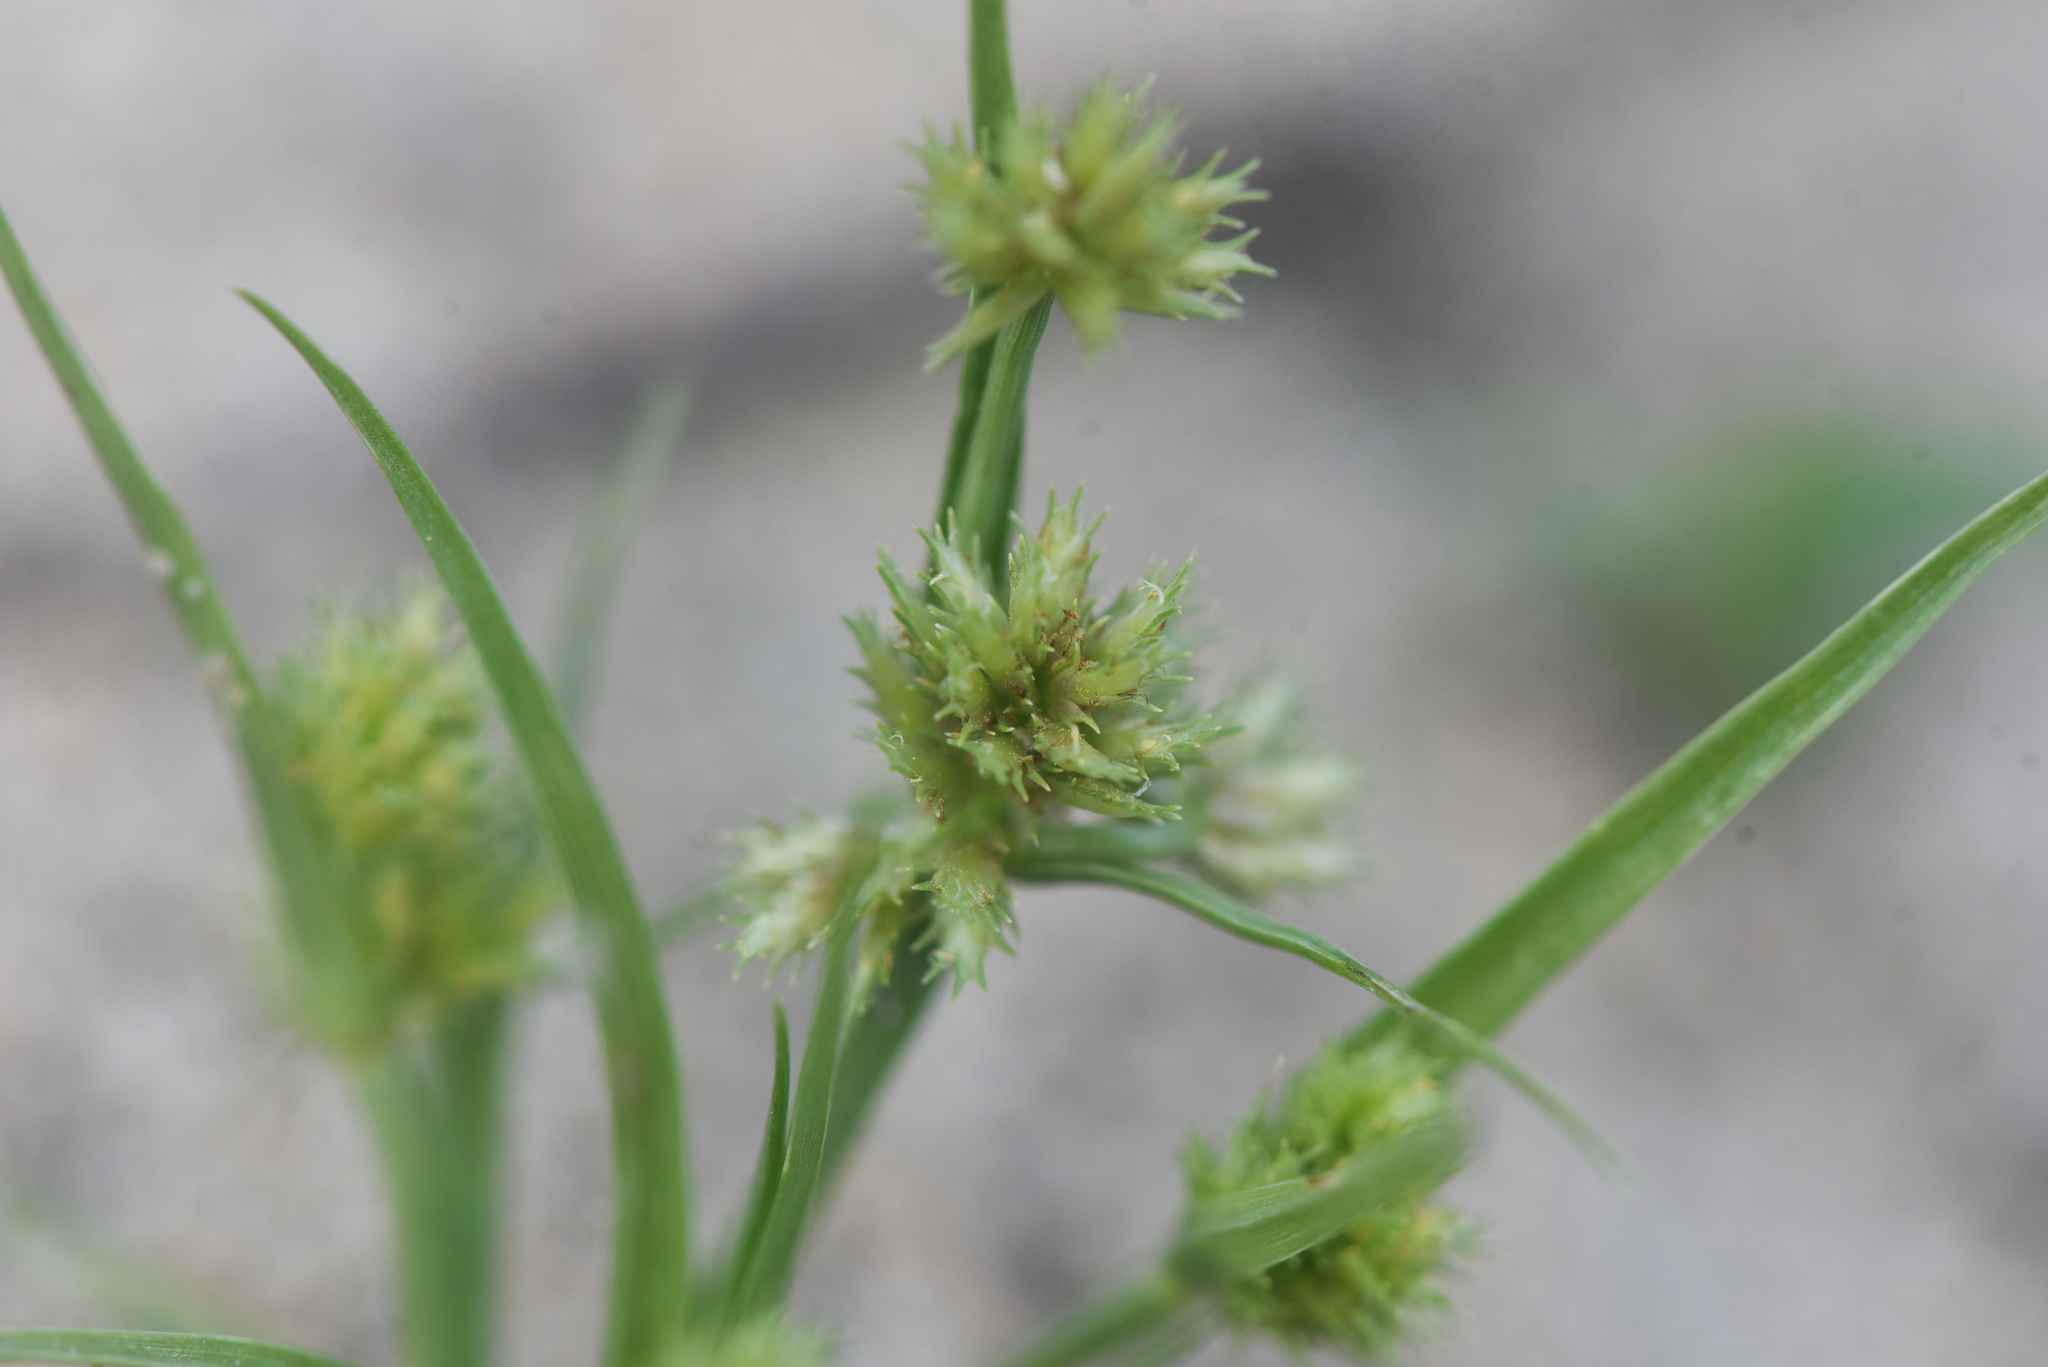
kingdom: Plantae
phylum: Tracheophyta
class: Liliopsida
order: Poales
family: Cyperaceae
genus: Cyperus
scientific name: Cyperus squarrosus
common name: Awned cyperus
